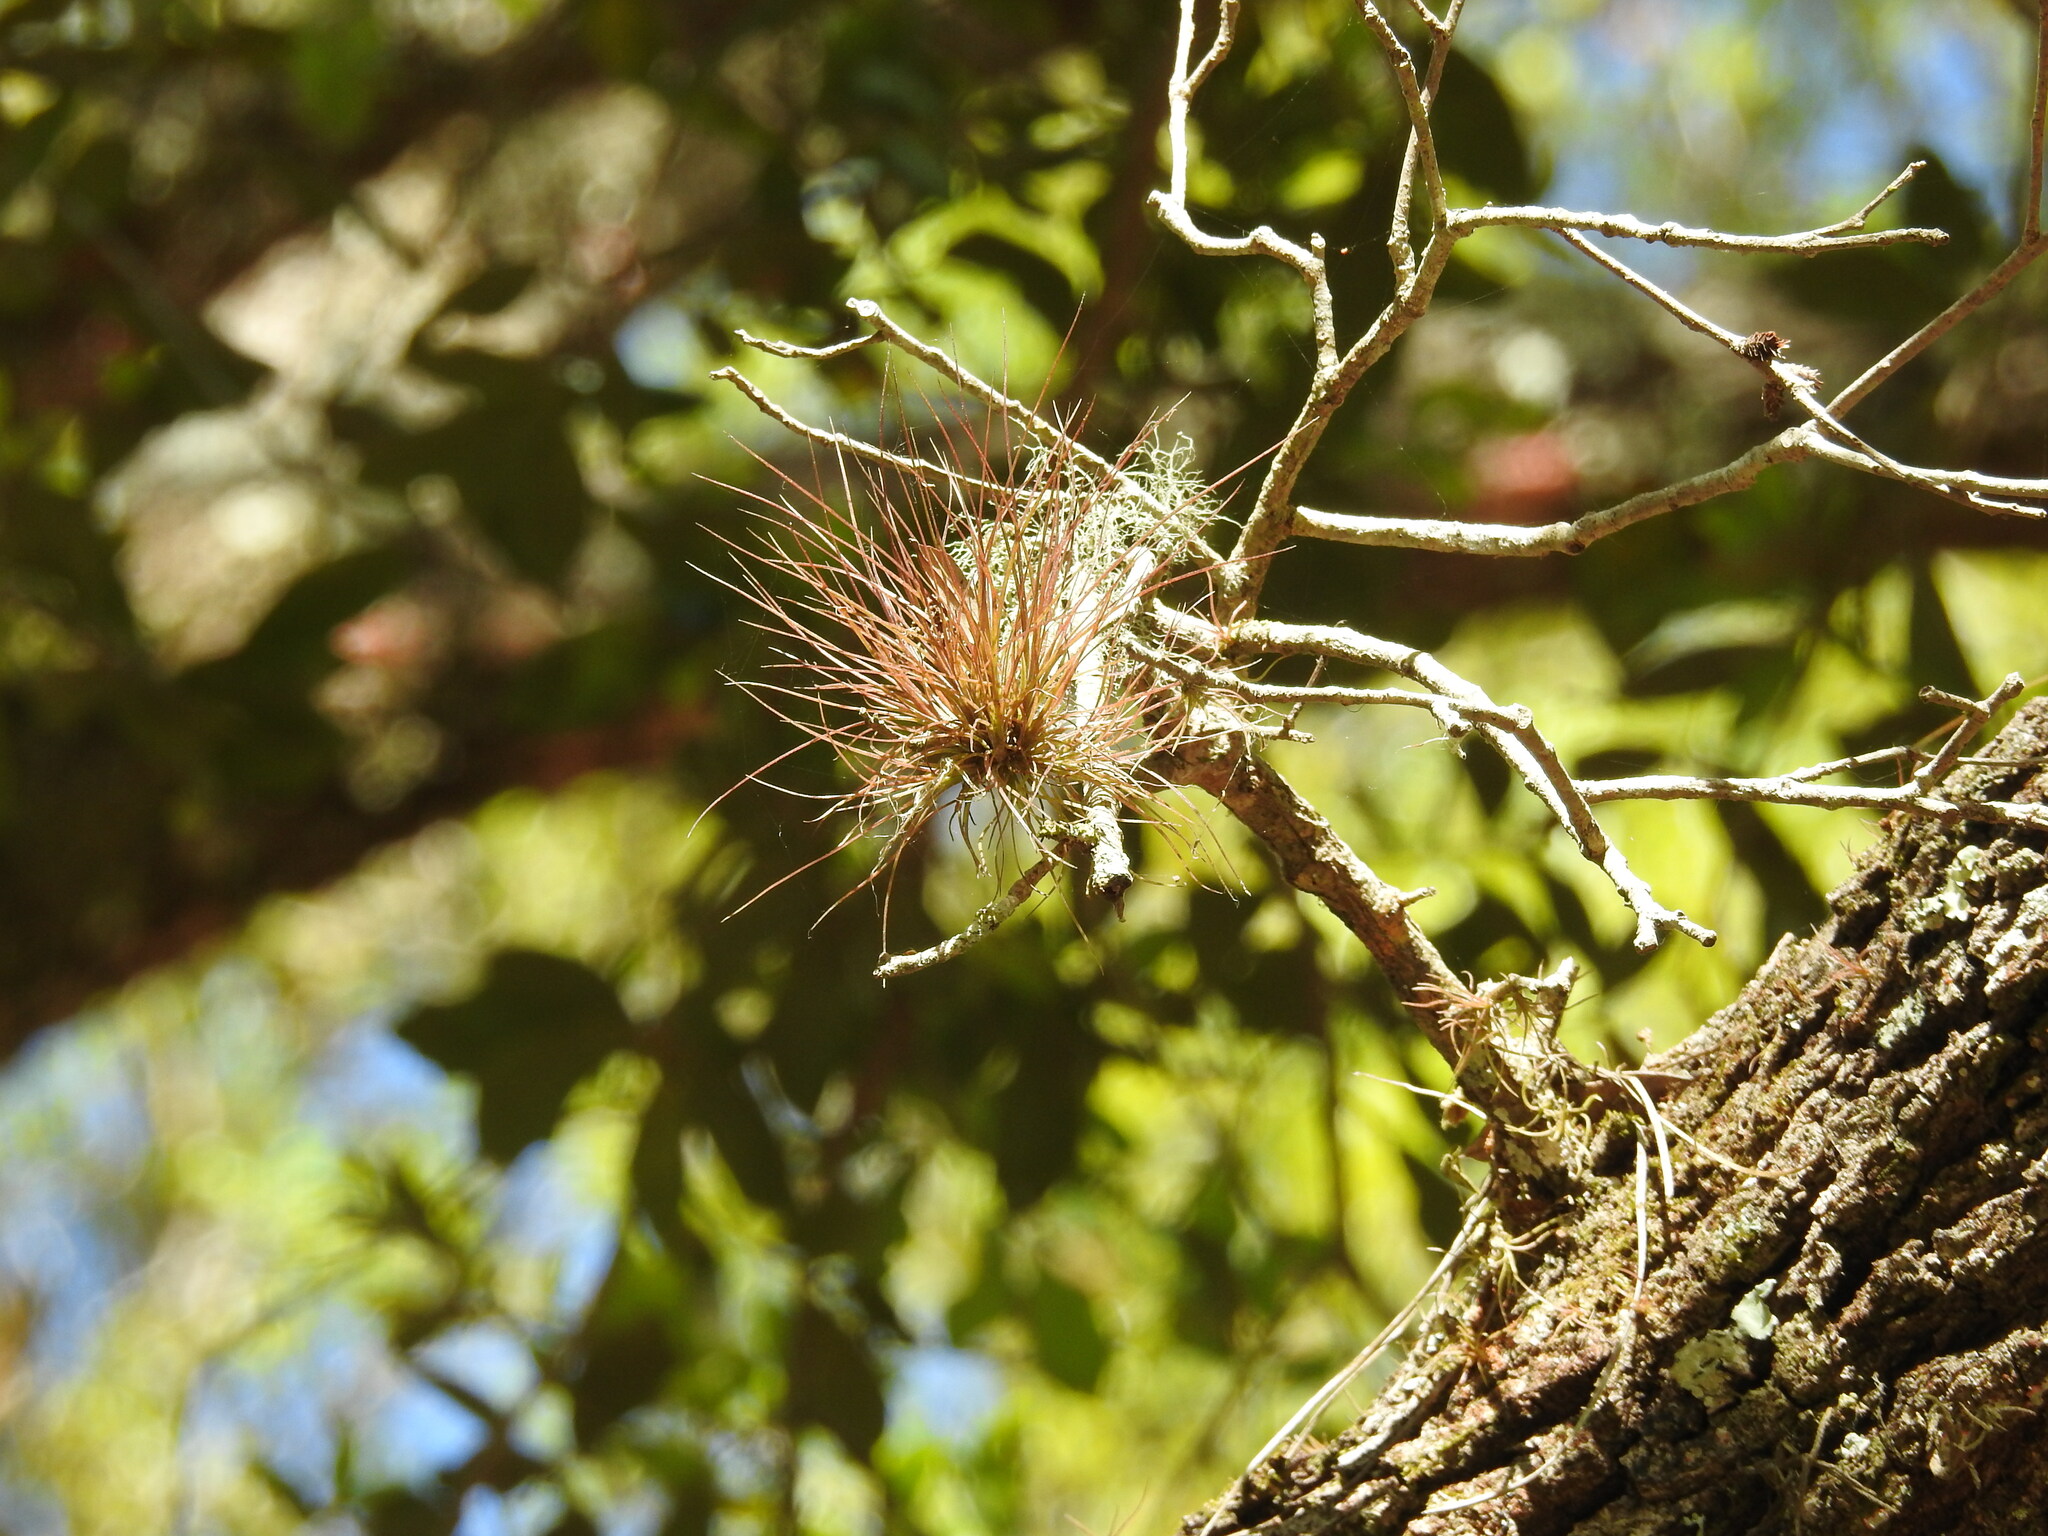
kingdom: Plantae
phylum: Tracheophyta
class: Liliopsida
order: Poales
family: Bromeliaceae
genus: Tillandsia
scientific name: Tillandsia setacea
